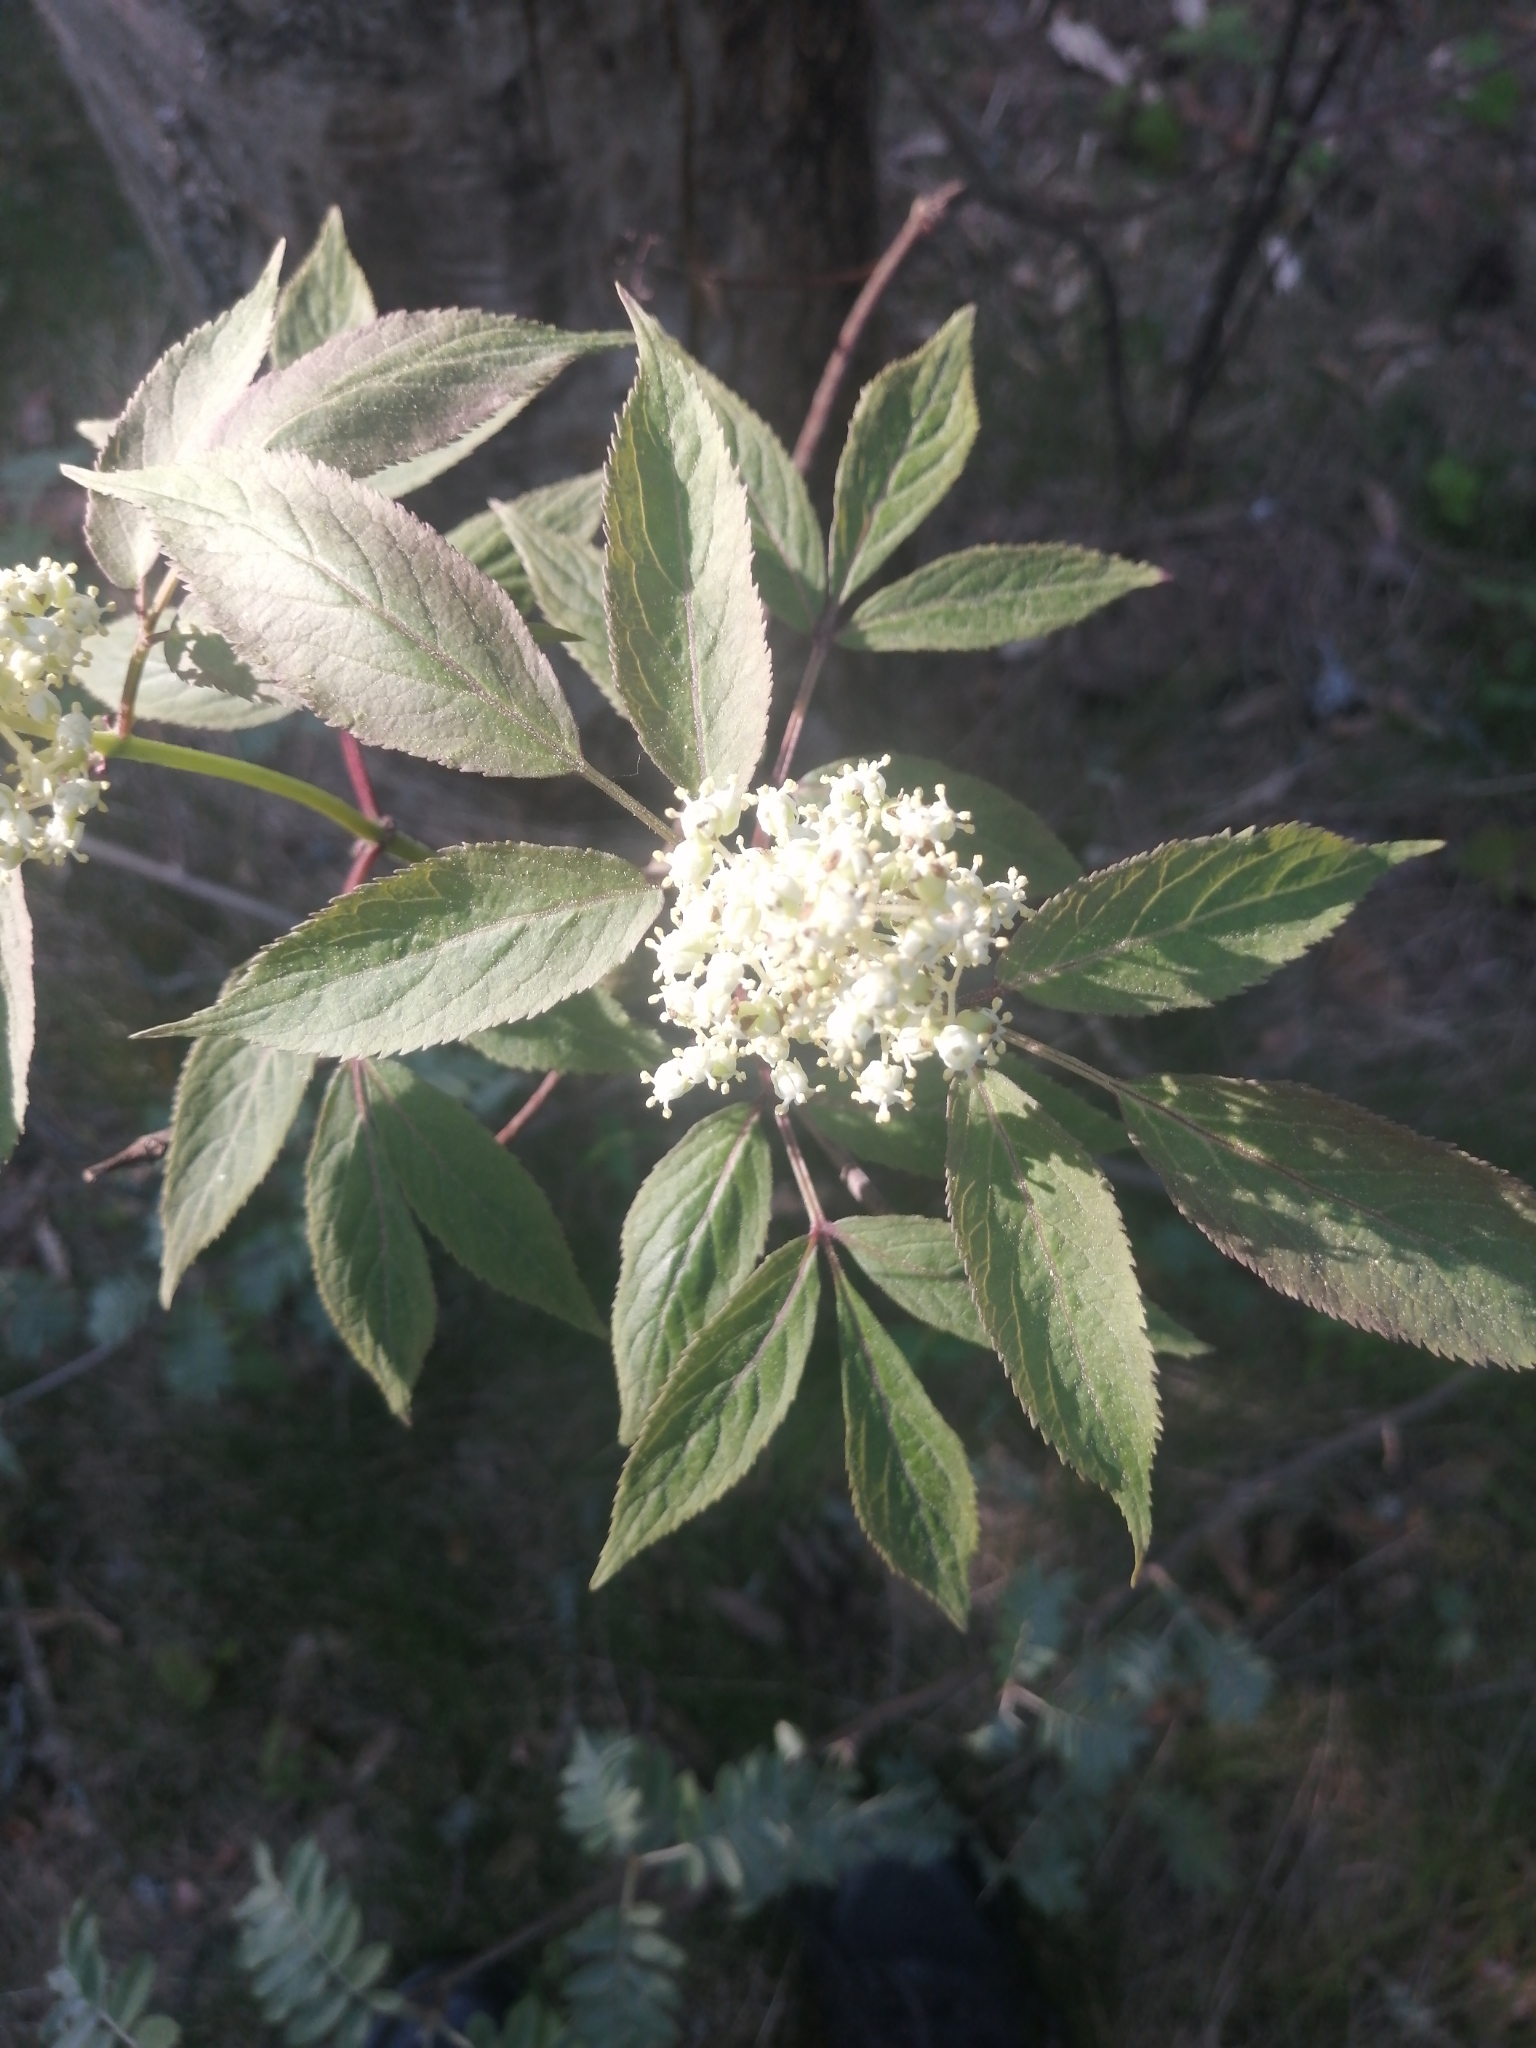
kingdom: Plantae
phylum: Tracheophyta
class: Magnoliopsida
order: Dipsacales
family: Viburnaceae
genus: Sambucus
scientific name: Sambucus
